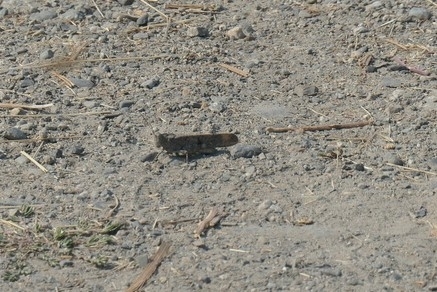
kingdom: Animalia
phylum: Arthropoda
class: Insecta
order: Orthoptera
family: Acrididae
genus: Dissosteira
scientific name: Dissosteira carolina
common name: Carolina grasshopper
